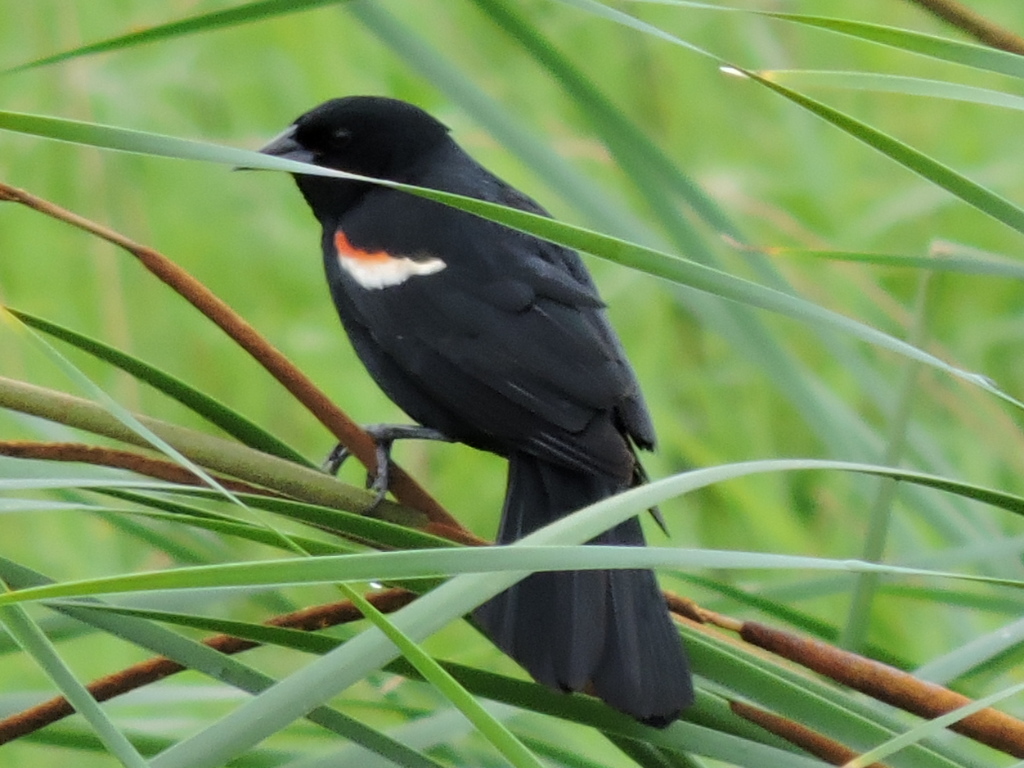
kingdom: Animalia
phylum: Chordata
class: Aves
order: Passeriformes
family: Icteridae
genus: Agelaius
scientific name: Agelaius phoeniceus
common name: Red-winged blackbird
